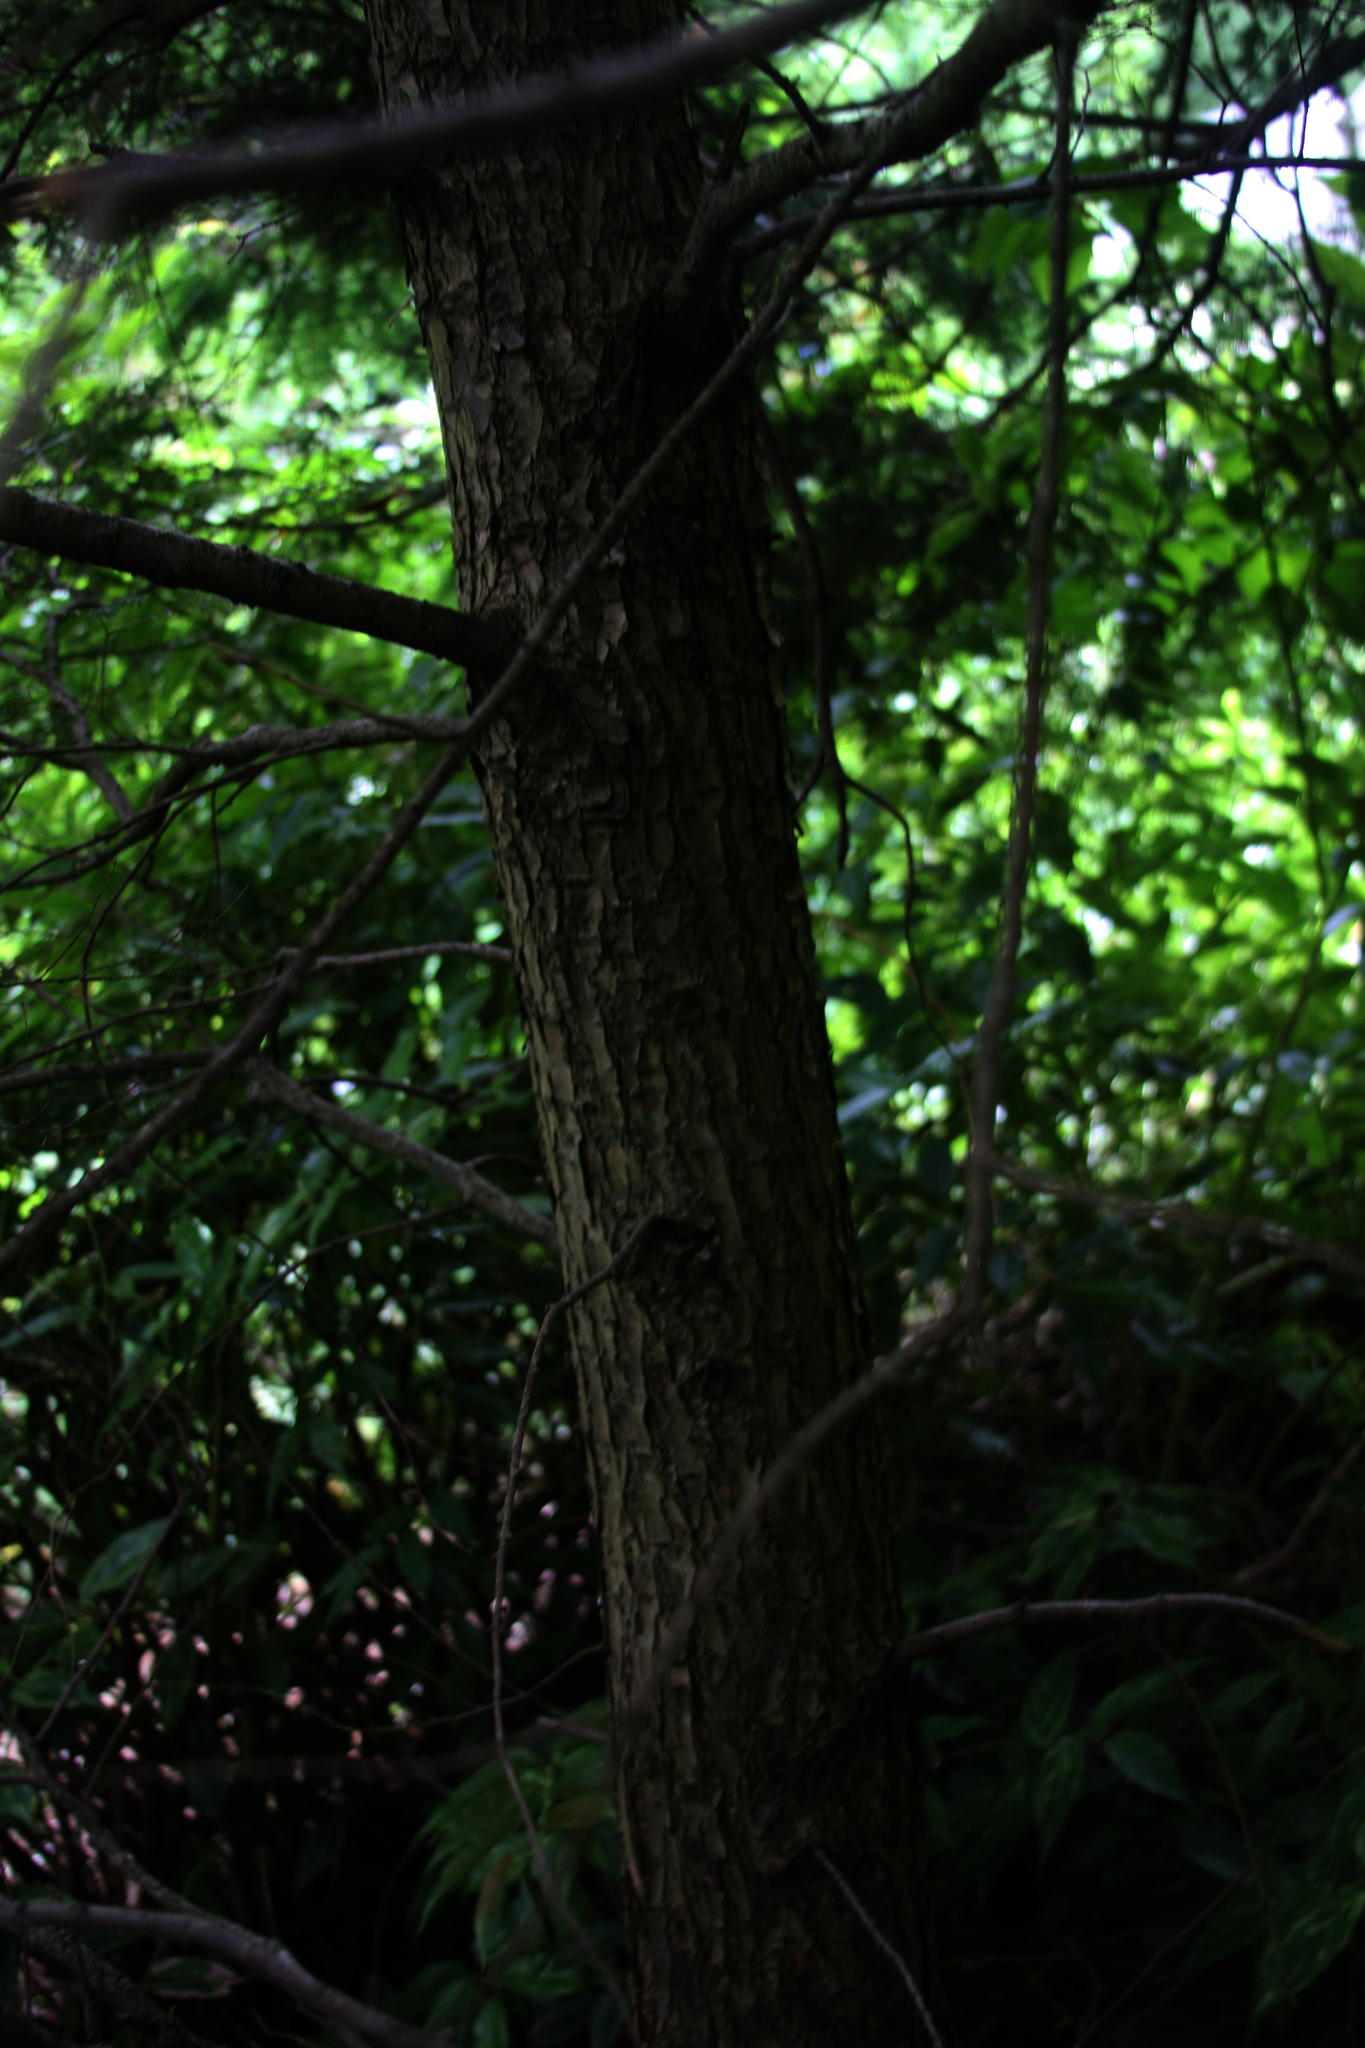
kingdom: Plantae
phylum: Tracheophyta
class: Pinopsida
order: Pinales
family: Pinaceae
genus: Tsuga
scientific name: Tsuga canadensis
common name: Eastern hemlock
